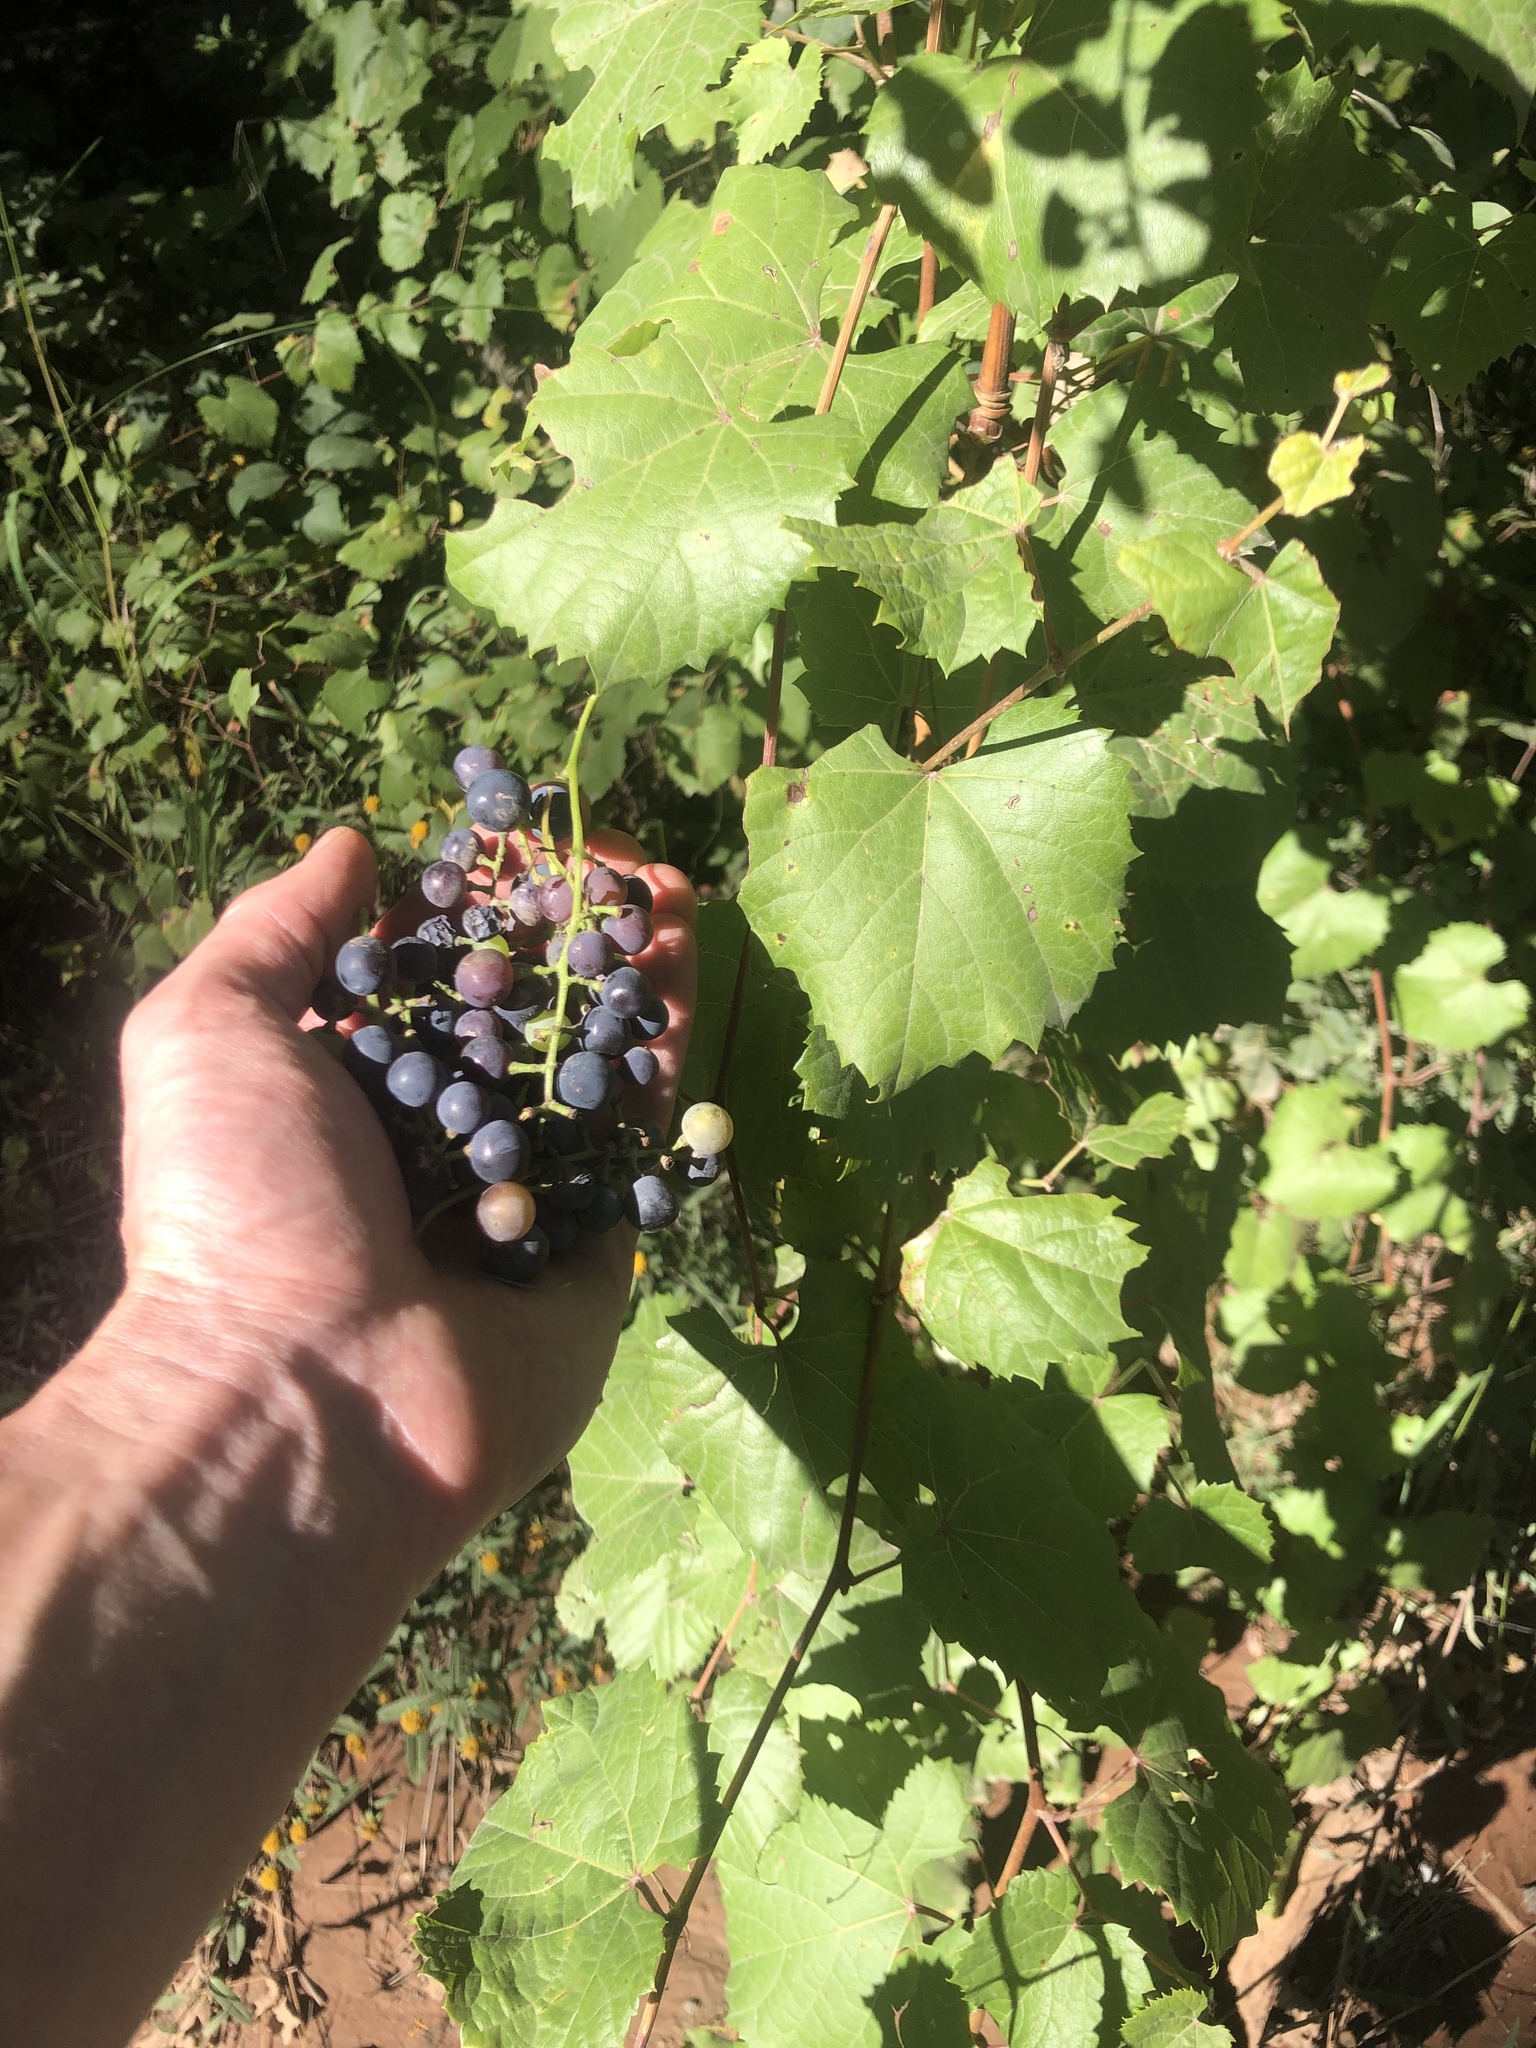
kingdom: Plantae
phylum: Tracheophyta
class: Magnoliopsida
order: Vitales
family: Vitaceae
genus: Vitis
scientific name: Vitis arizonica
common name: Canyon grape
